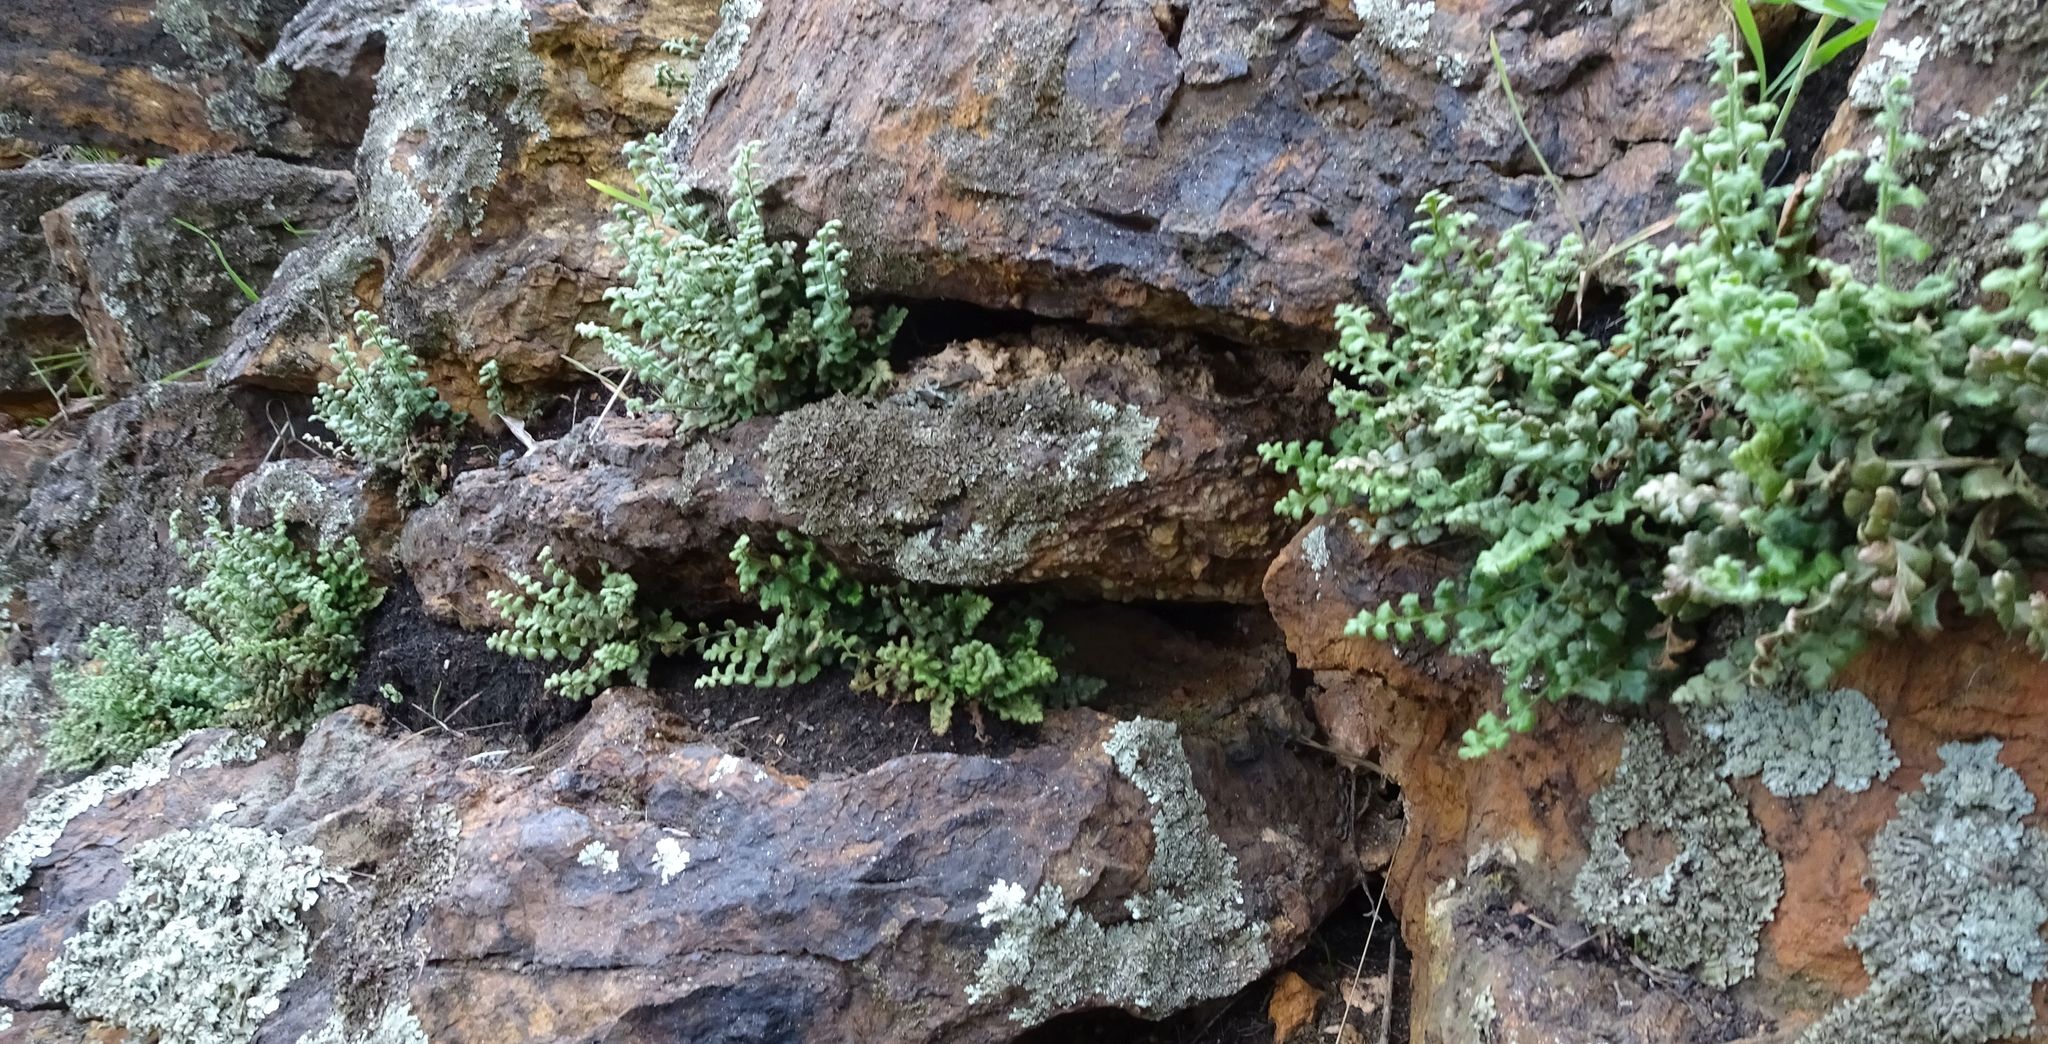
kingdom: Plantae
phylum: Tracheophyta
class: Polypodiopsida
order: Polypodiales
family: Aspleniaceae
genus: Asplenium
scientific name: Asplenium subglandulosum
